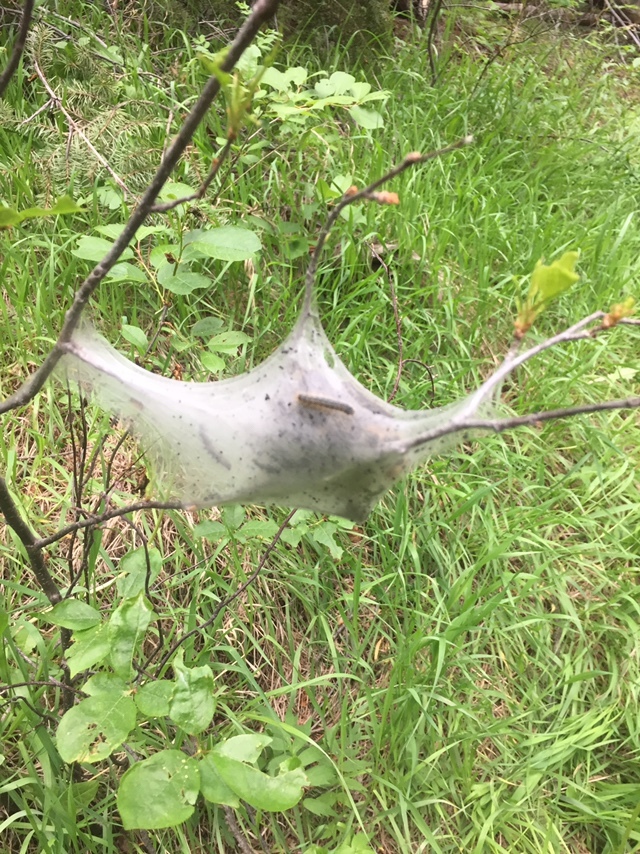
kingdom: Animalia
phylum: Arthropoda
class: Insecta
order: Lepidoptera
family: Lasiocampidae
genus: Malacosoma
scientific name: Malacosoma californica
